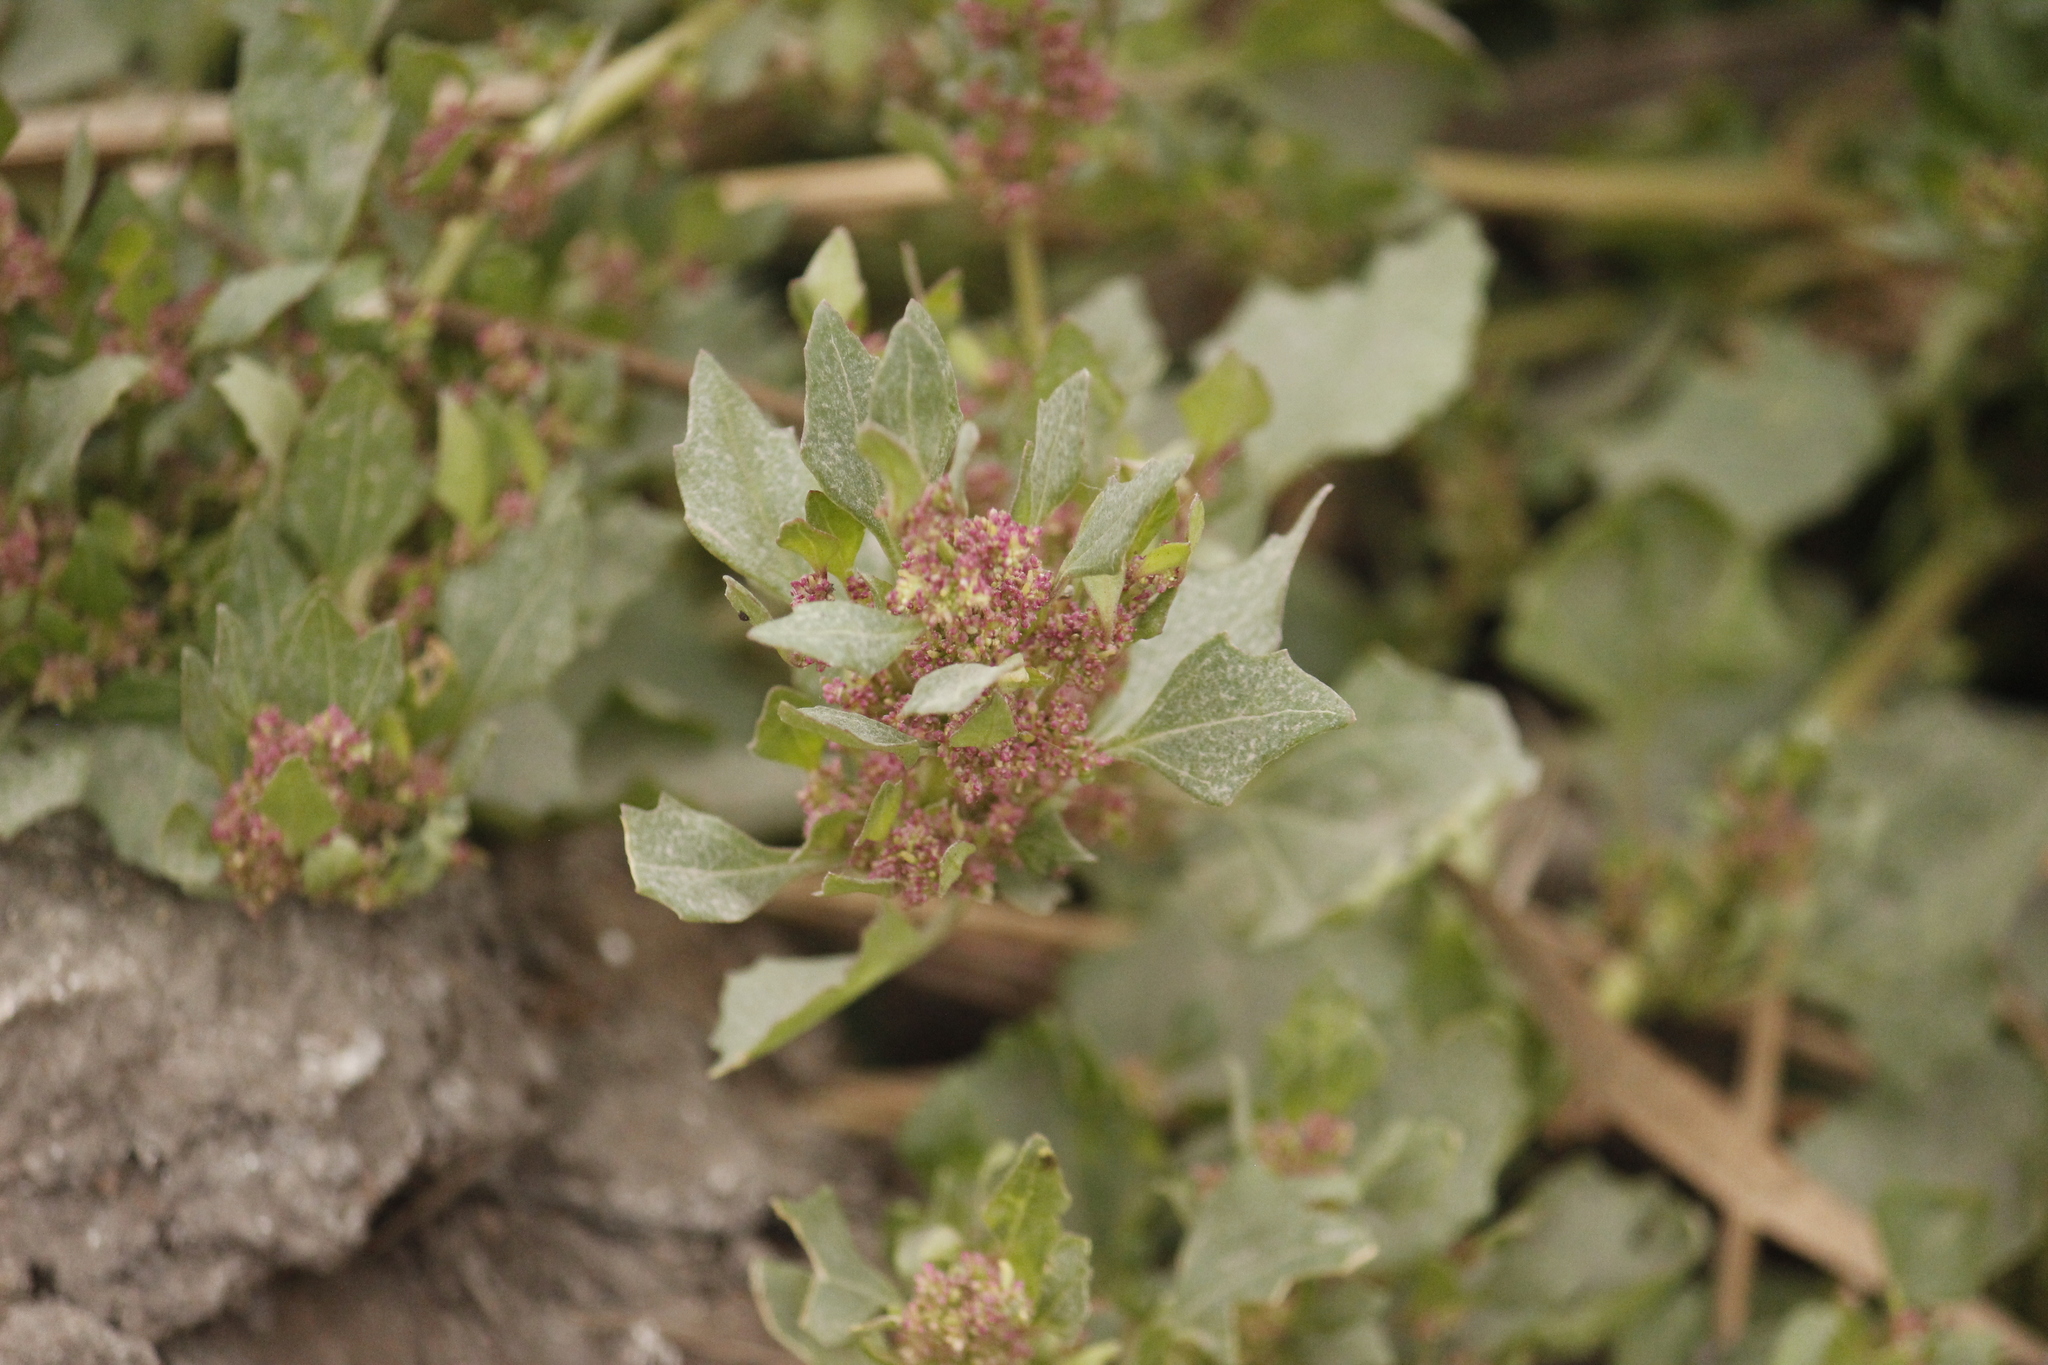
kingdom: Plantae
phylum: Tracheophyta
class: Magnoliopsida
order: Caryophyllales
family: Amaranthaceae
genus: Chenopodiastrum
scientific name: Chenopodiastrum murale
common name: Sowbane
